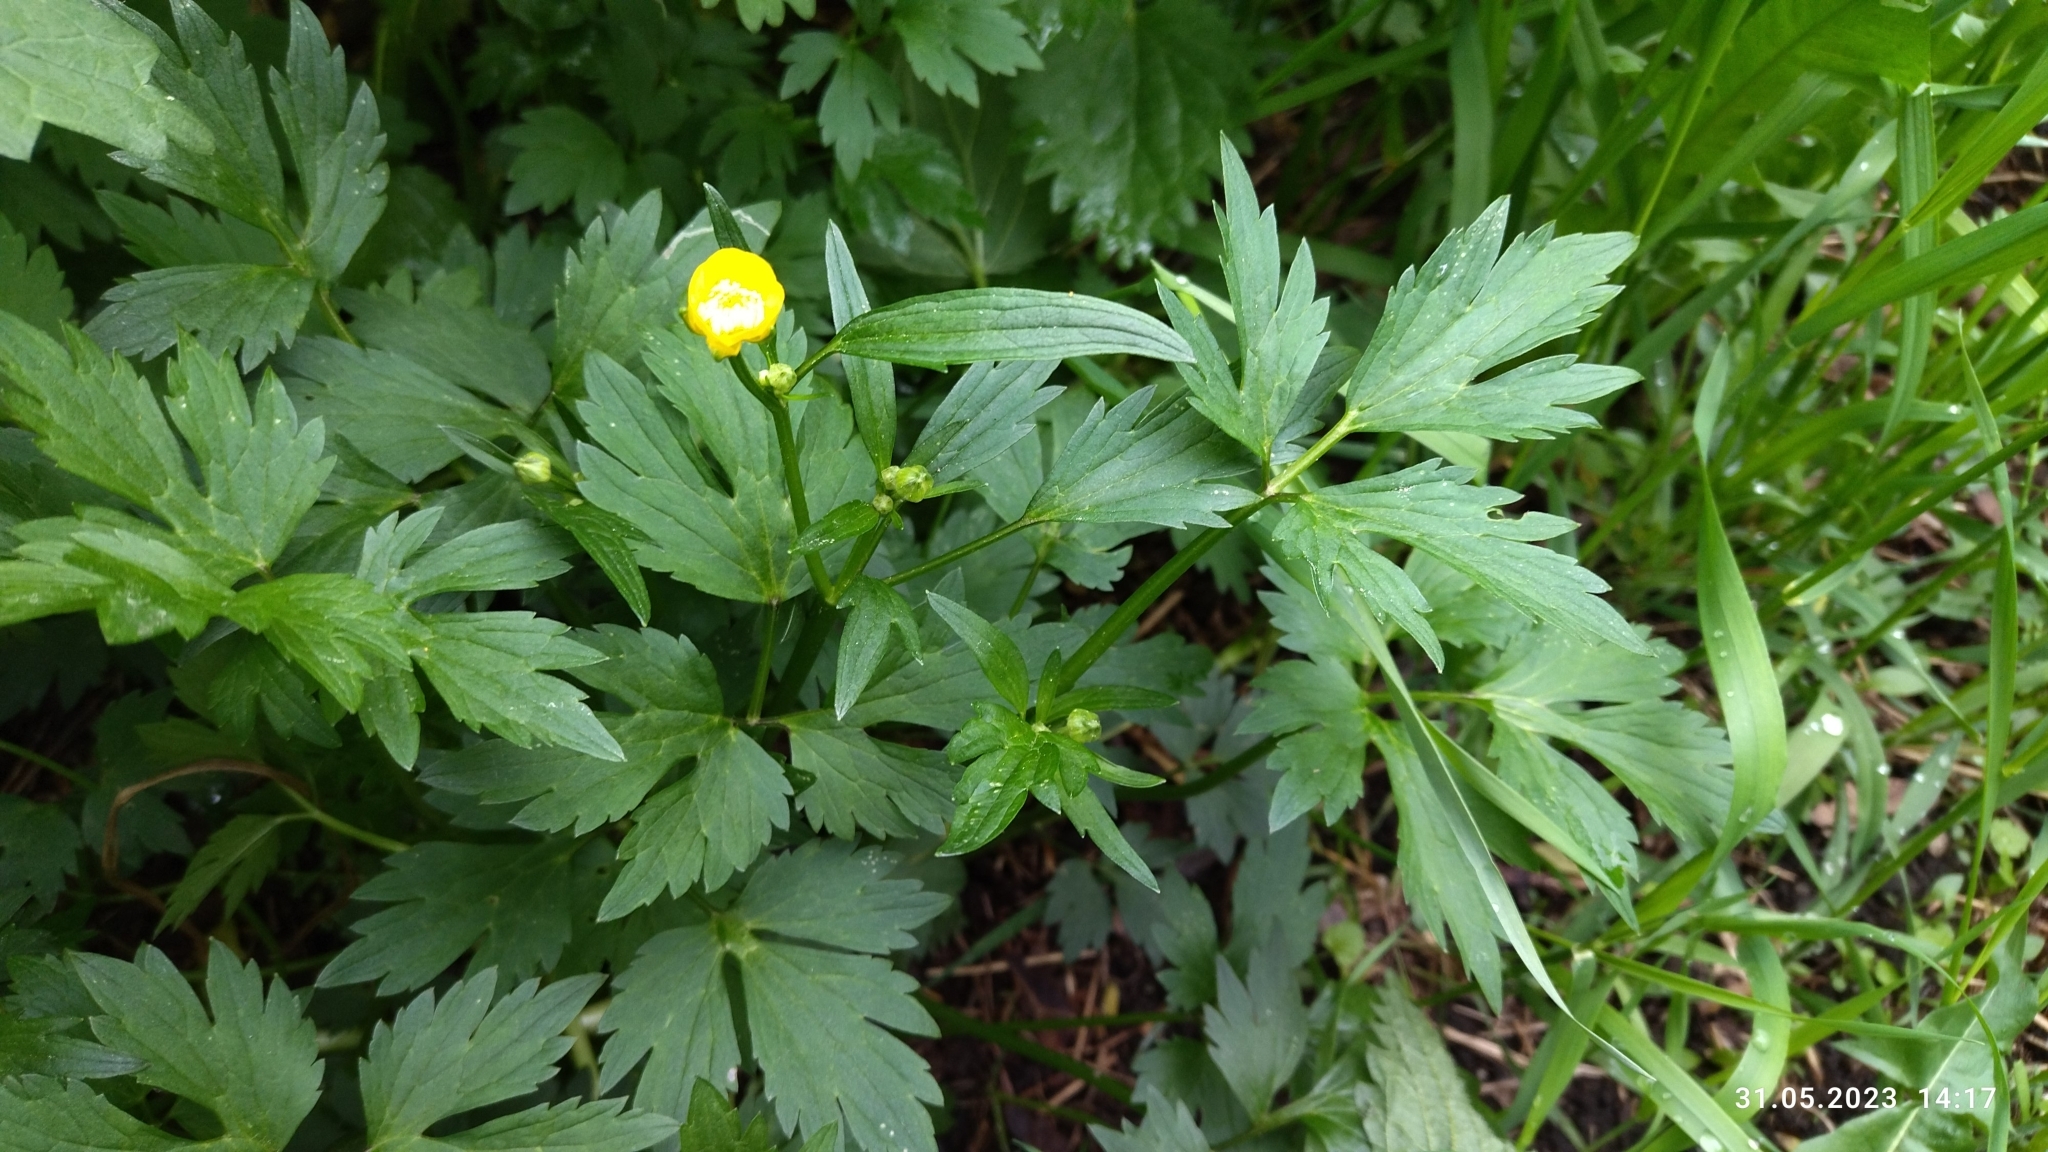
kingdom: Plantae
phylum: Tracheophyta
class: Magnoliopsida
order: Ranunculales
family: Ranunculaceae
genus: Ranunculus
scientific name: Ranunculus repens
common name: Creeping buttercup
